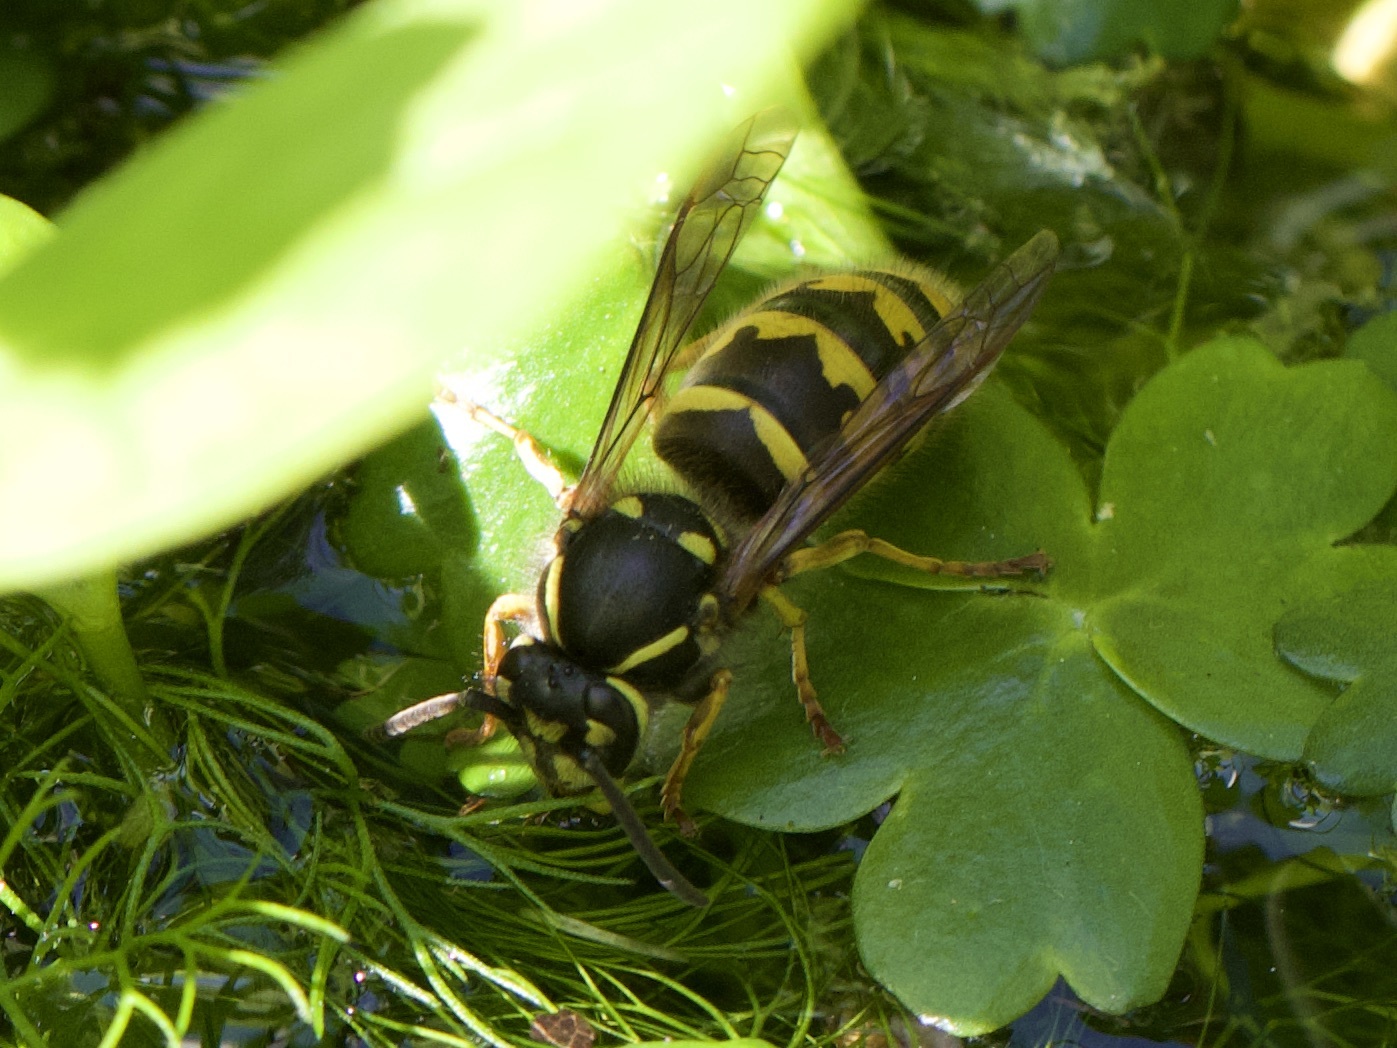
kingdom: Animalia
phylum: Arthropoda
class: Insecta
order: Hymenoptera
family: Vespidae
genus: Vespula
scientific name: Vespula vulgaris
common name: Common wasp
